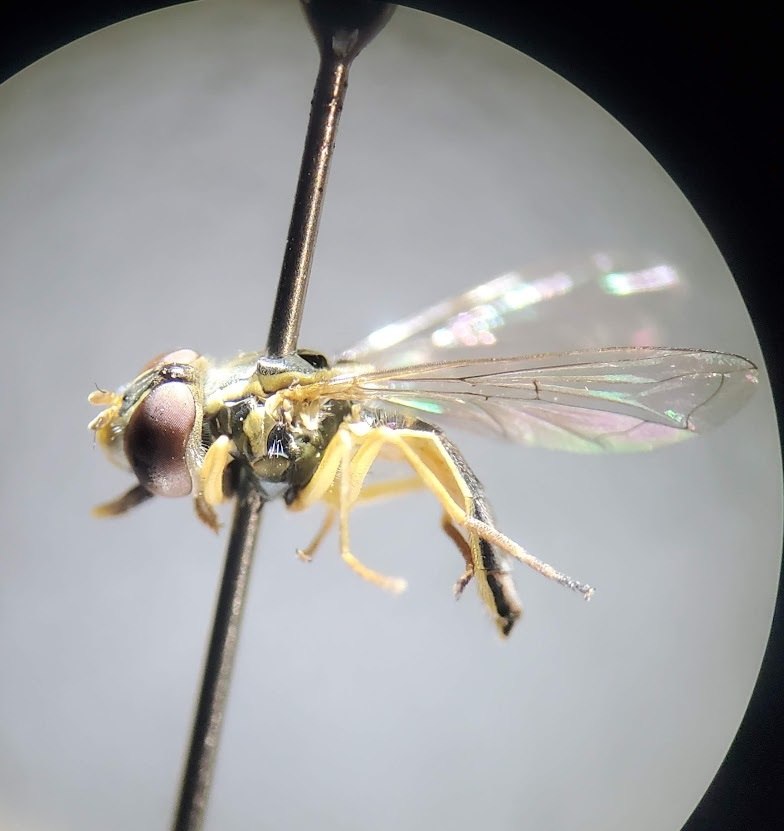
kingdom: Animalia
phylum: Arthropoda
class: Insecta
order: Diptera
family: Syrphidae
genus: Toxomerus
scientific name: Toxomerus marginatus
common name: Syrphid fly
